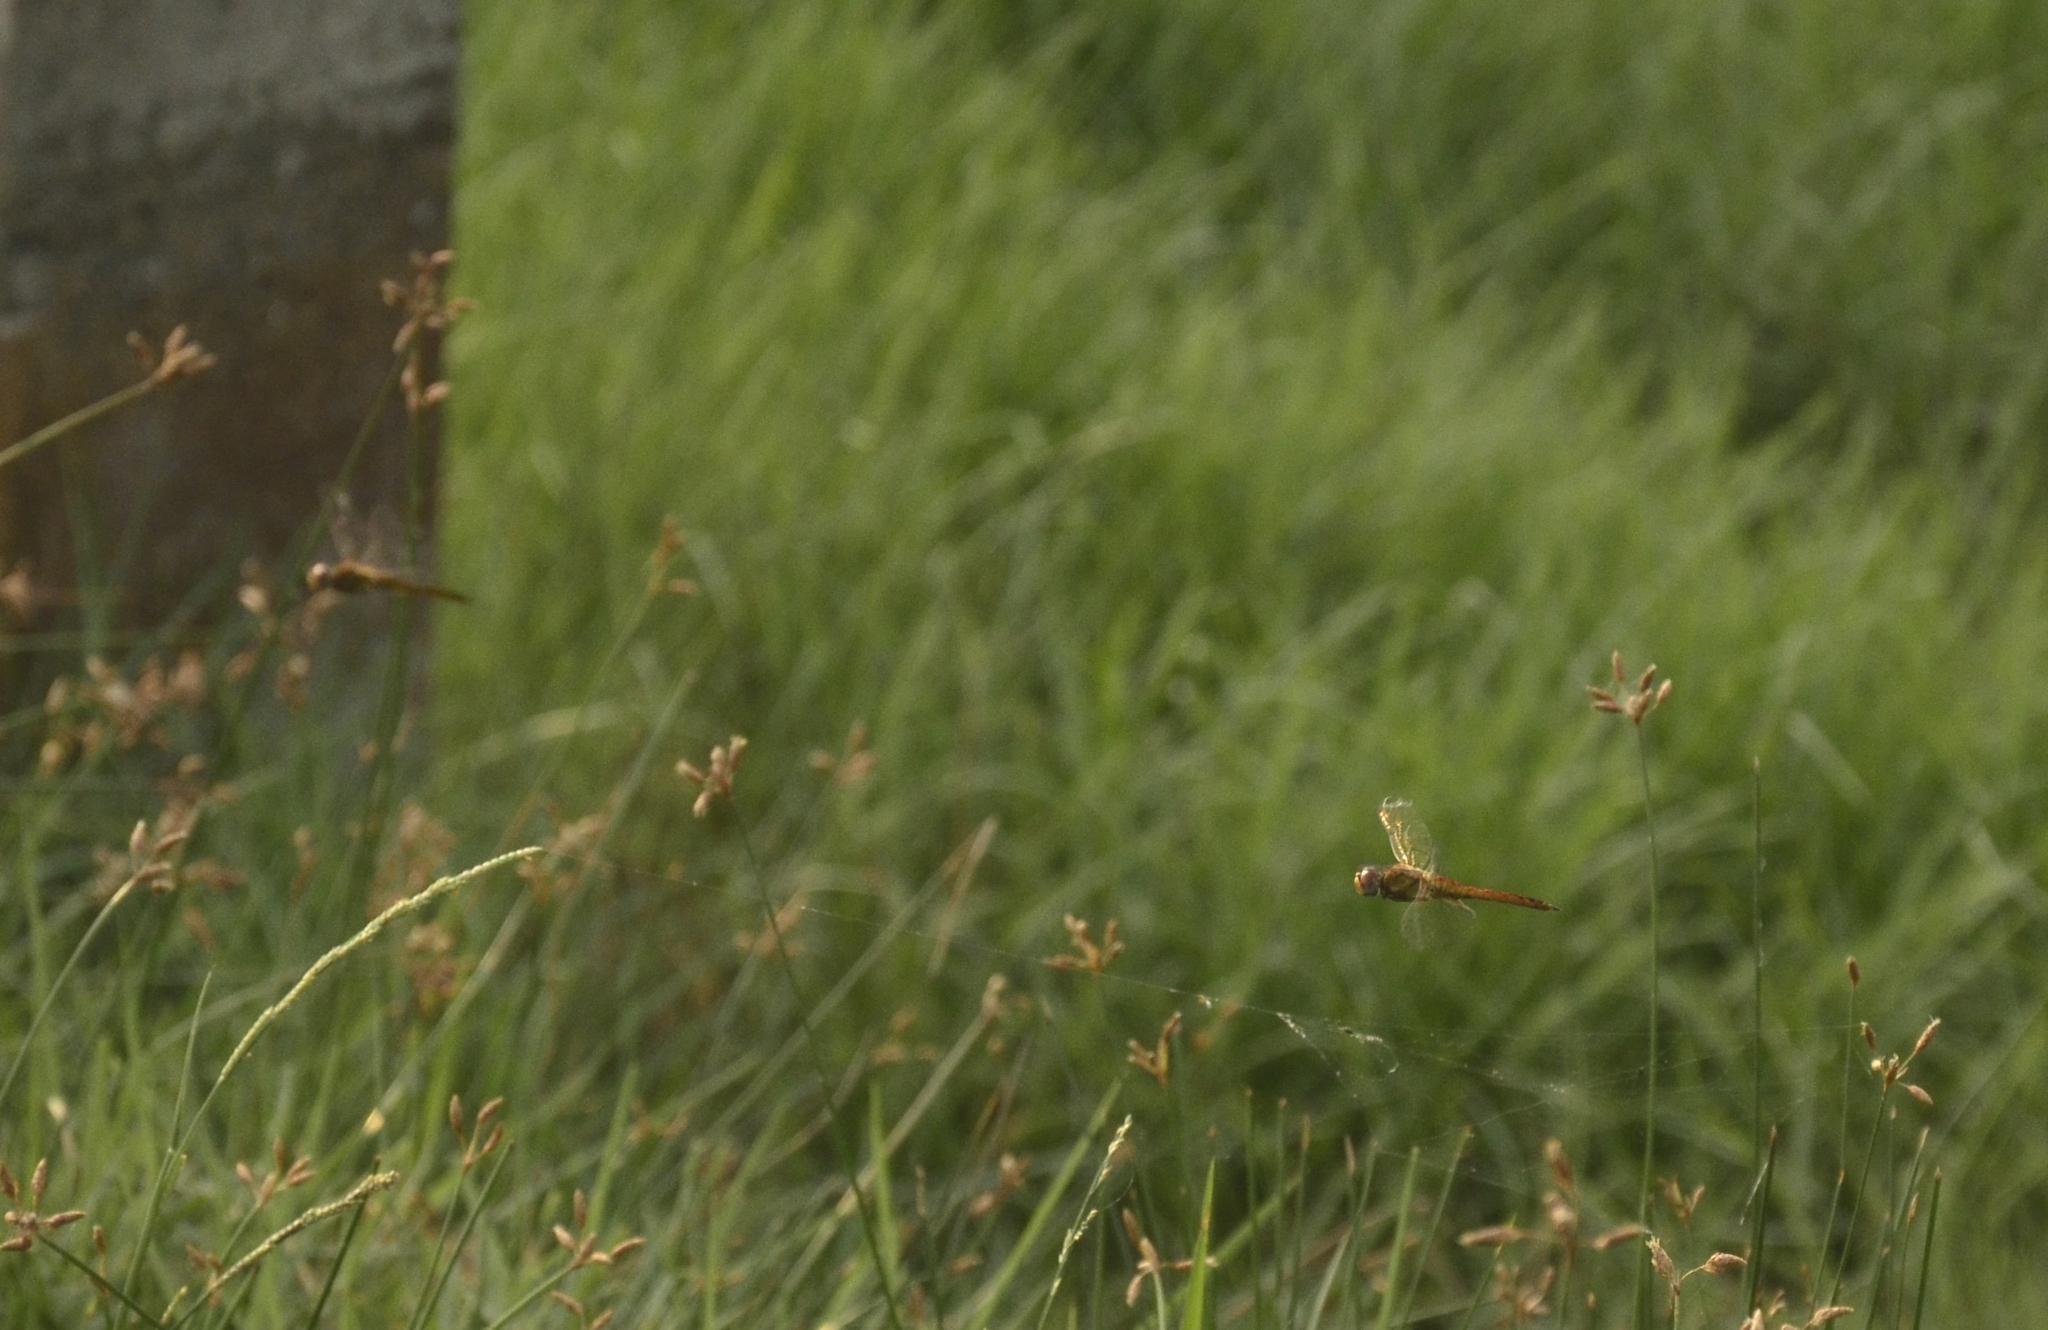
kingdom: Animalia
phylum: Arthropoda
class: Insecta
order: Odonata
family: Libellulidae
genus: Pantala
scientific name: Pantala flavescens
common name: Wandering glider
